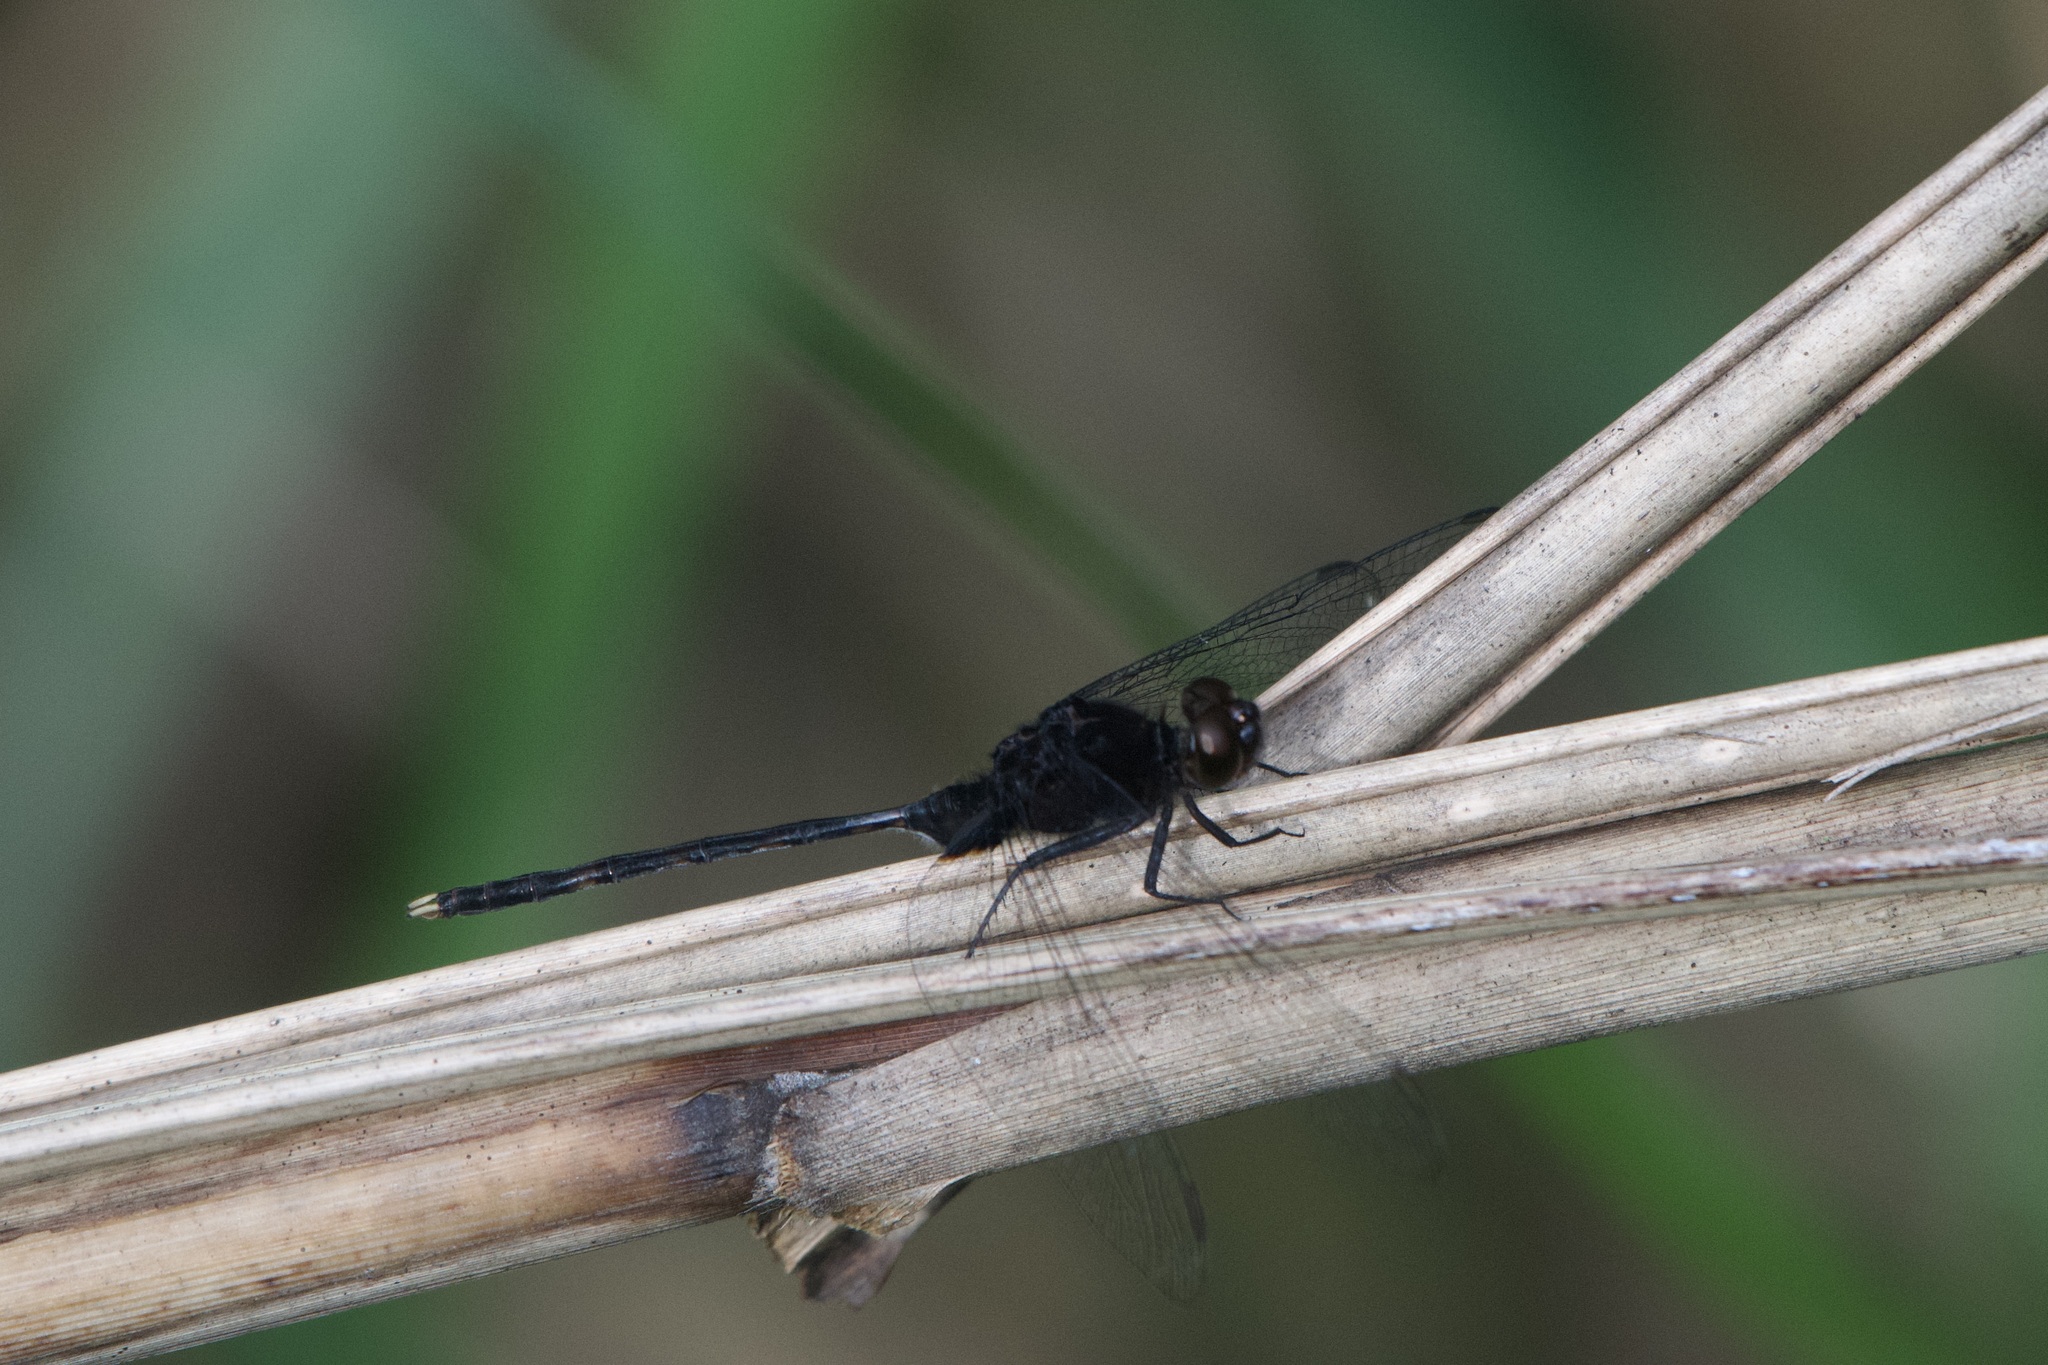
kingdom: Animalia
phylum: Arthropoda
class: Insecta
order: Odonata
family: Libellulidae
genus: Erythemis
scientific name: Erythemis plebeja
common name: Pin-tailed pondhawk
